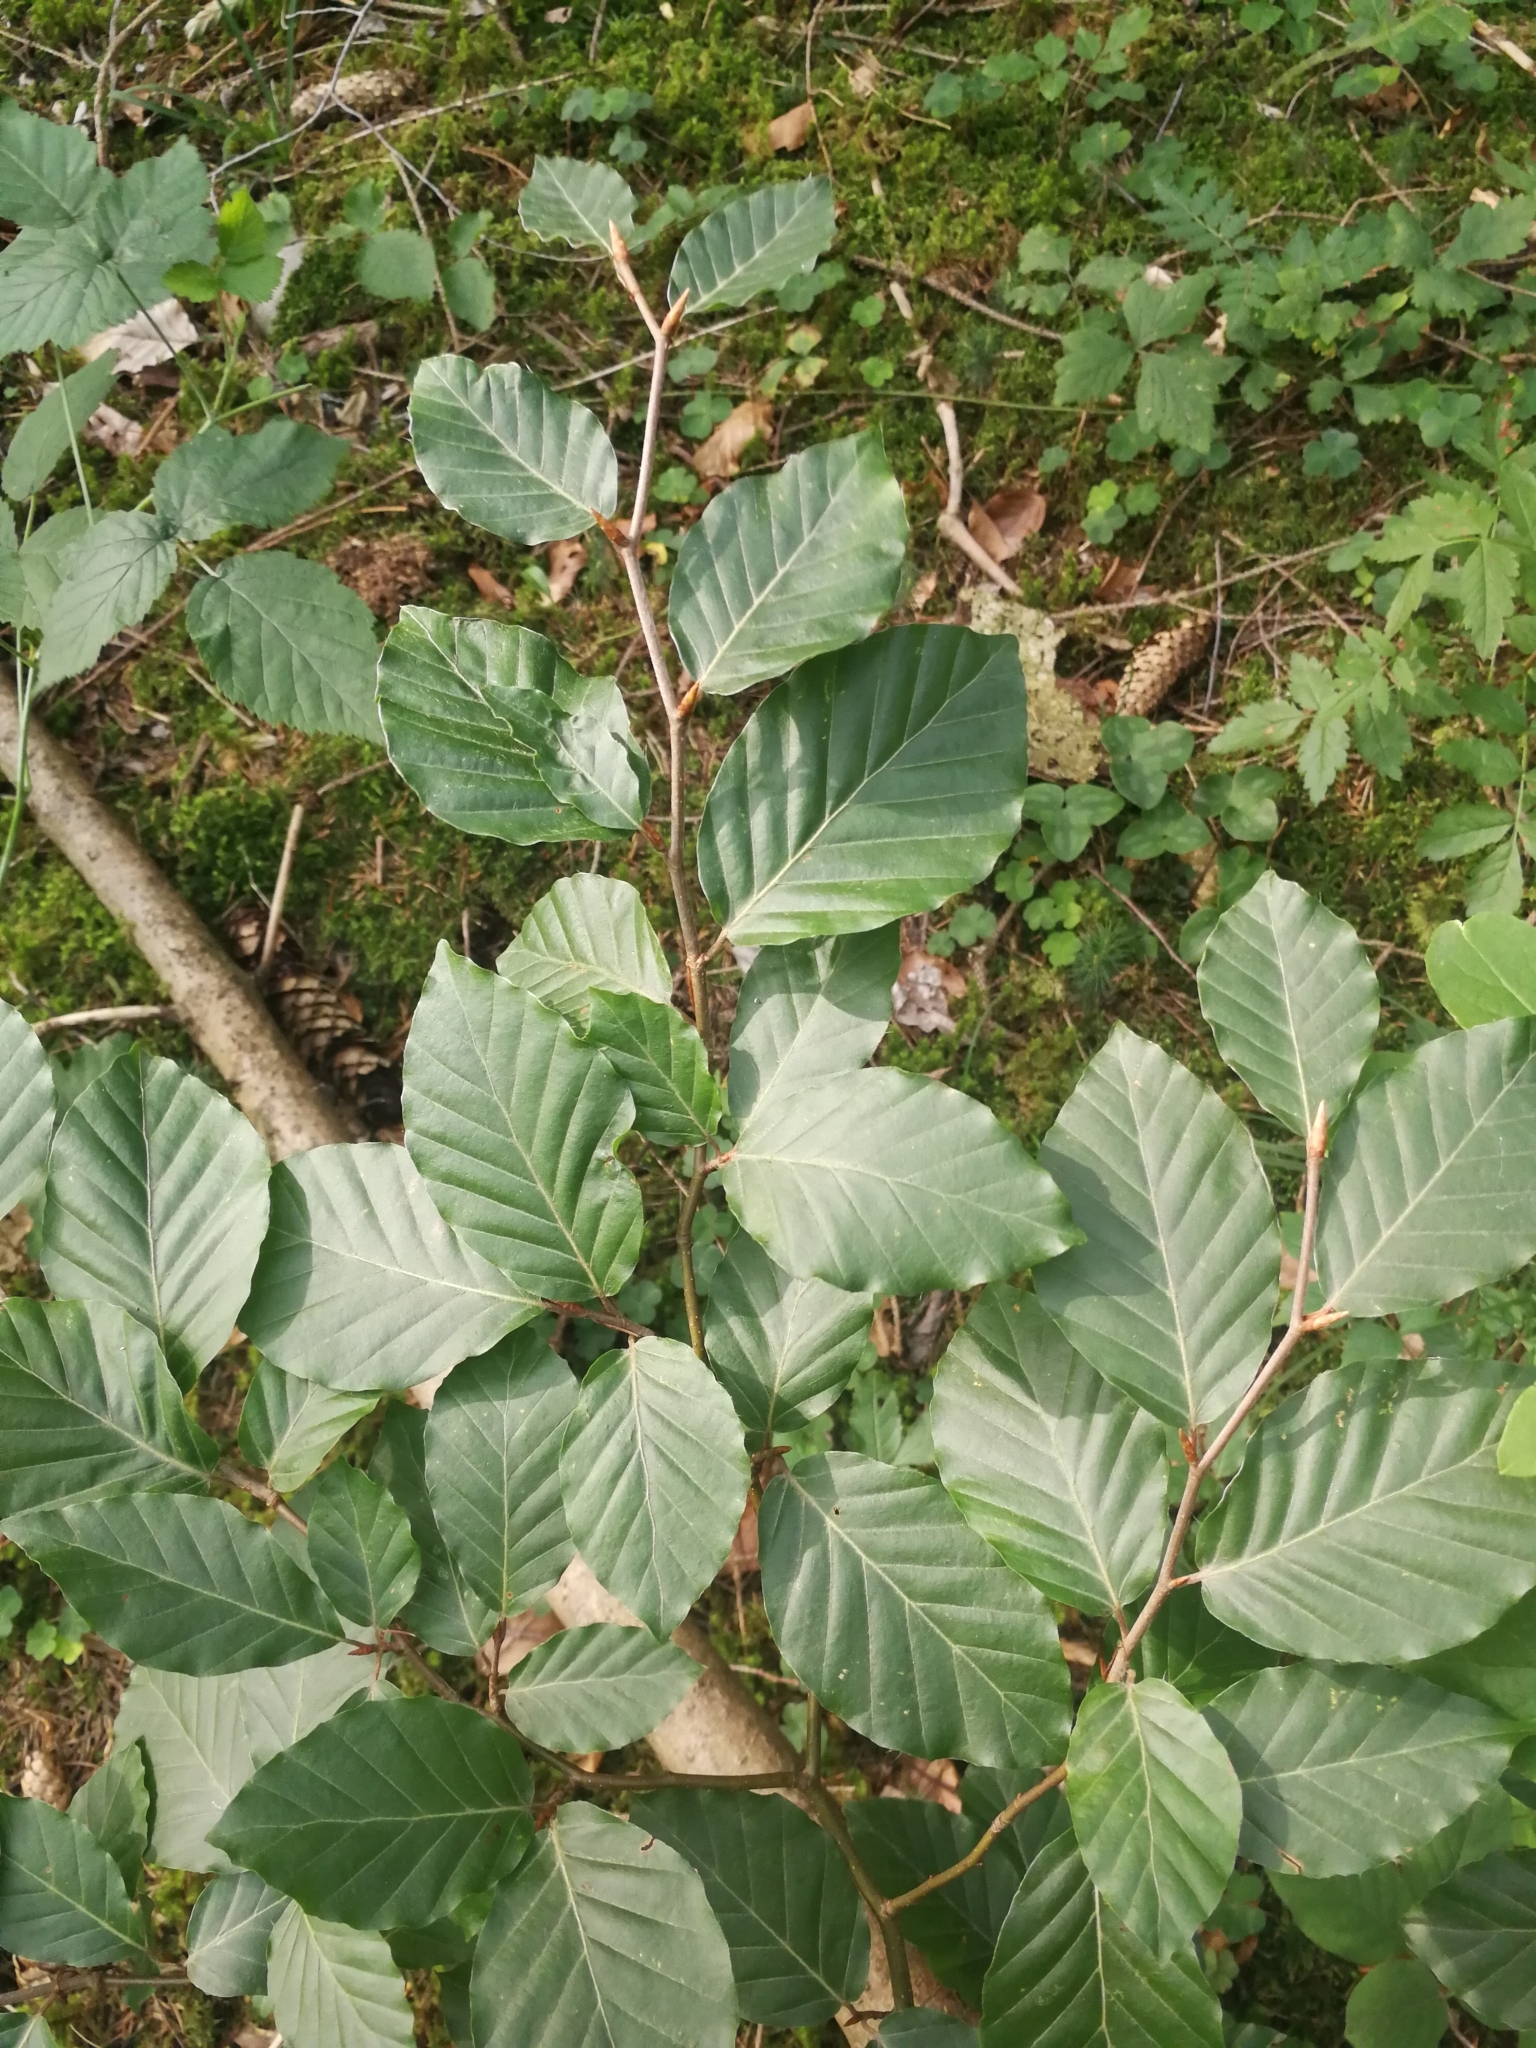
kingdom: Plantae
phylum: Tracheophyta
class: Magnoliopsida
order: Fagales
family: Fagaceae
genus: Fagus
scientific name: Fagus sylvatica
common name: Beech
